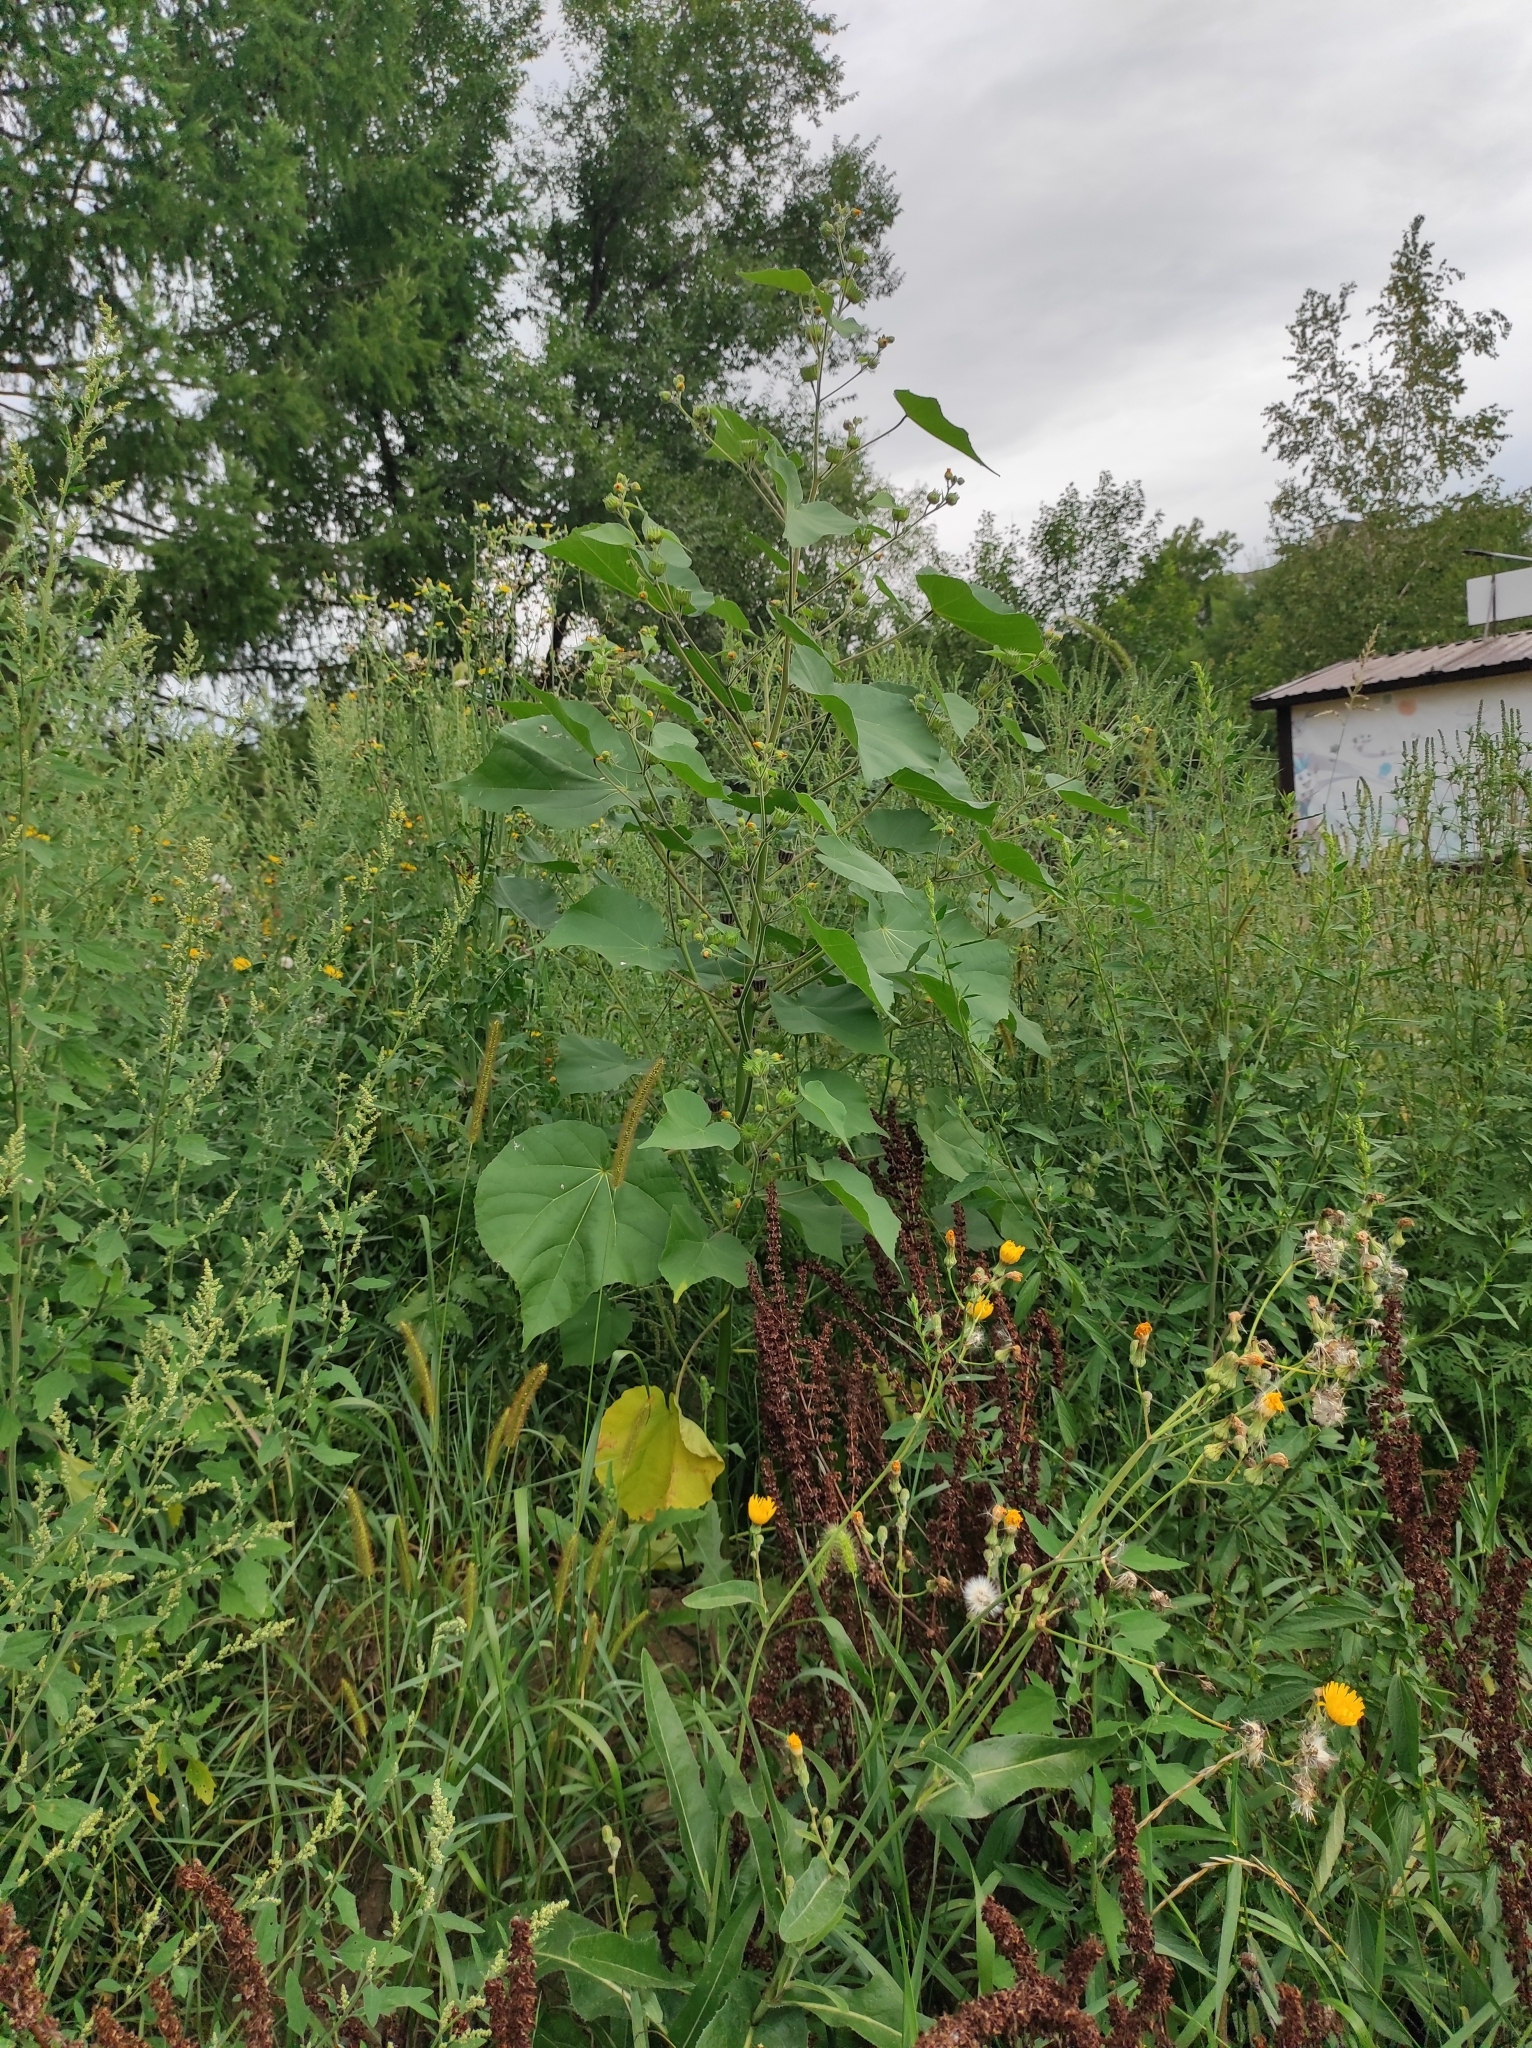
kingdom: Plantae
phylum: Tracheophyta
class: Magnoliopsida
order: Malvales
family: Malvaceae
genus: Abutilon
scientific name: Abutilon theophrasti
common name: Velvetleaf
